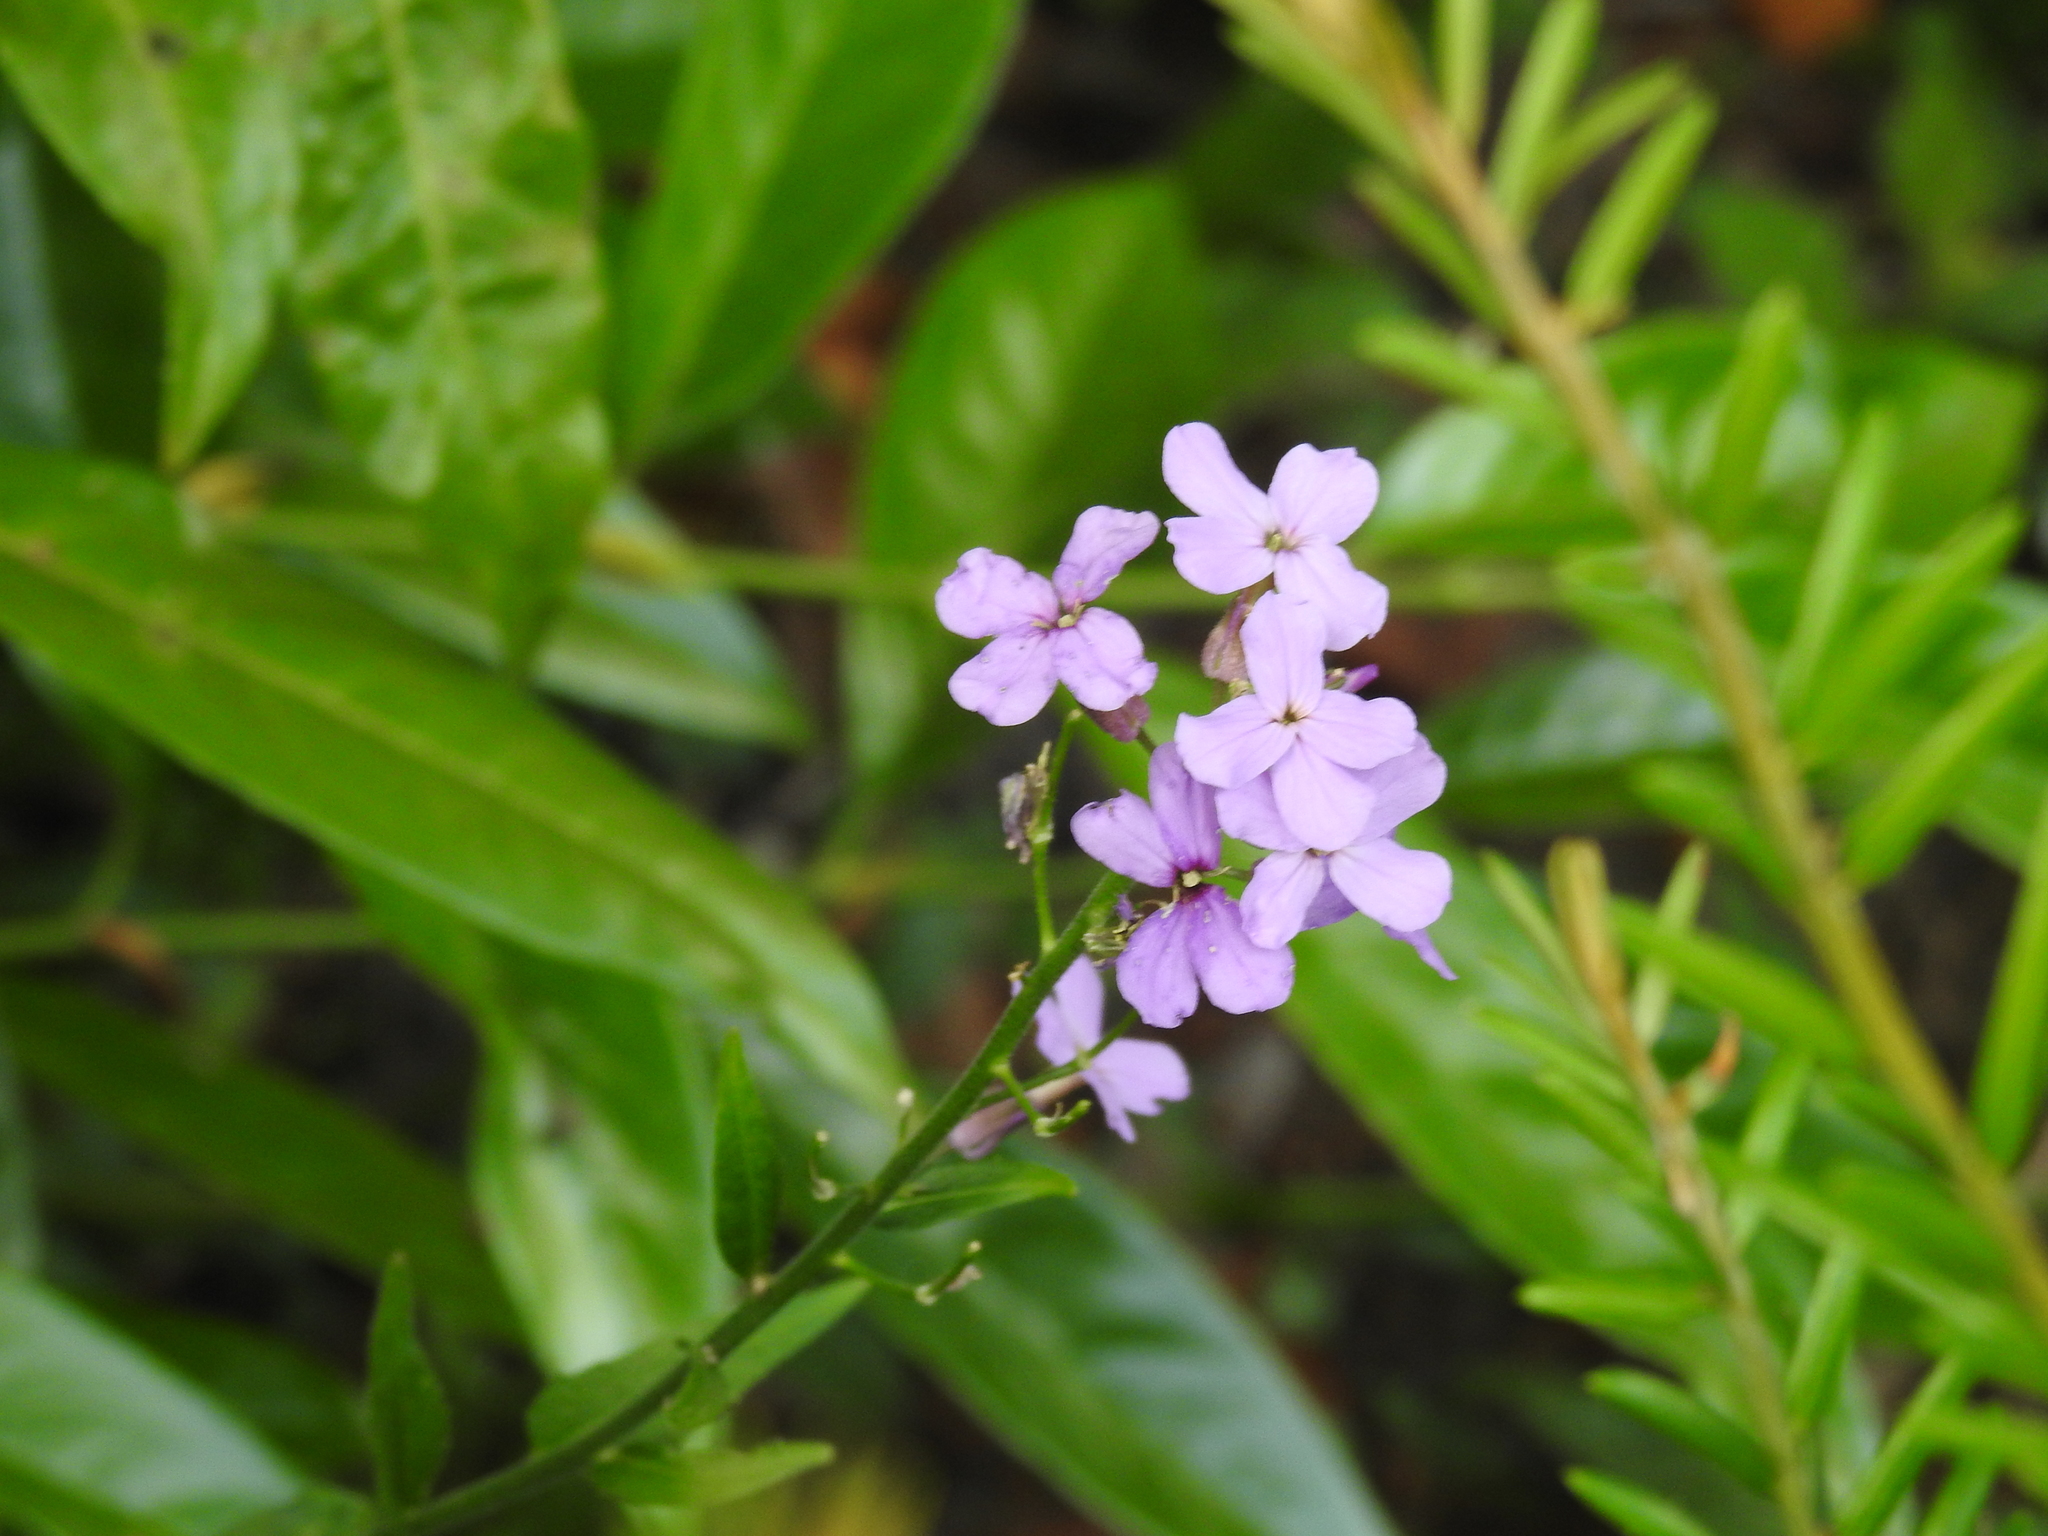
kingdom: Plantae
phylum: Tracheophyta
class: Magnoliopsida
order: Brassicales
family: Brassicaceae
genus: Hesperis
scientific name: Hesperis matronalis
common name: Dame's-violet
